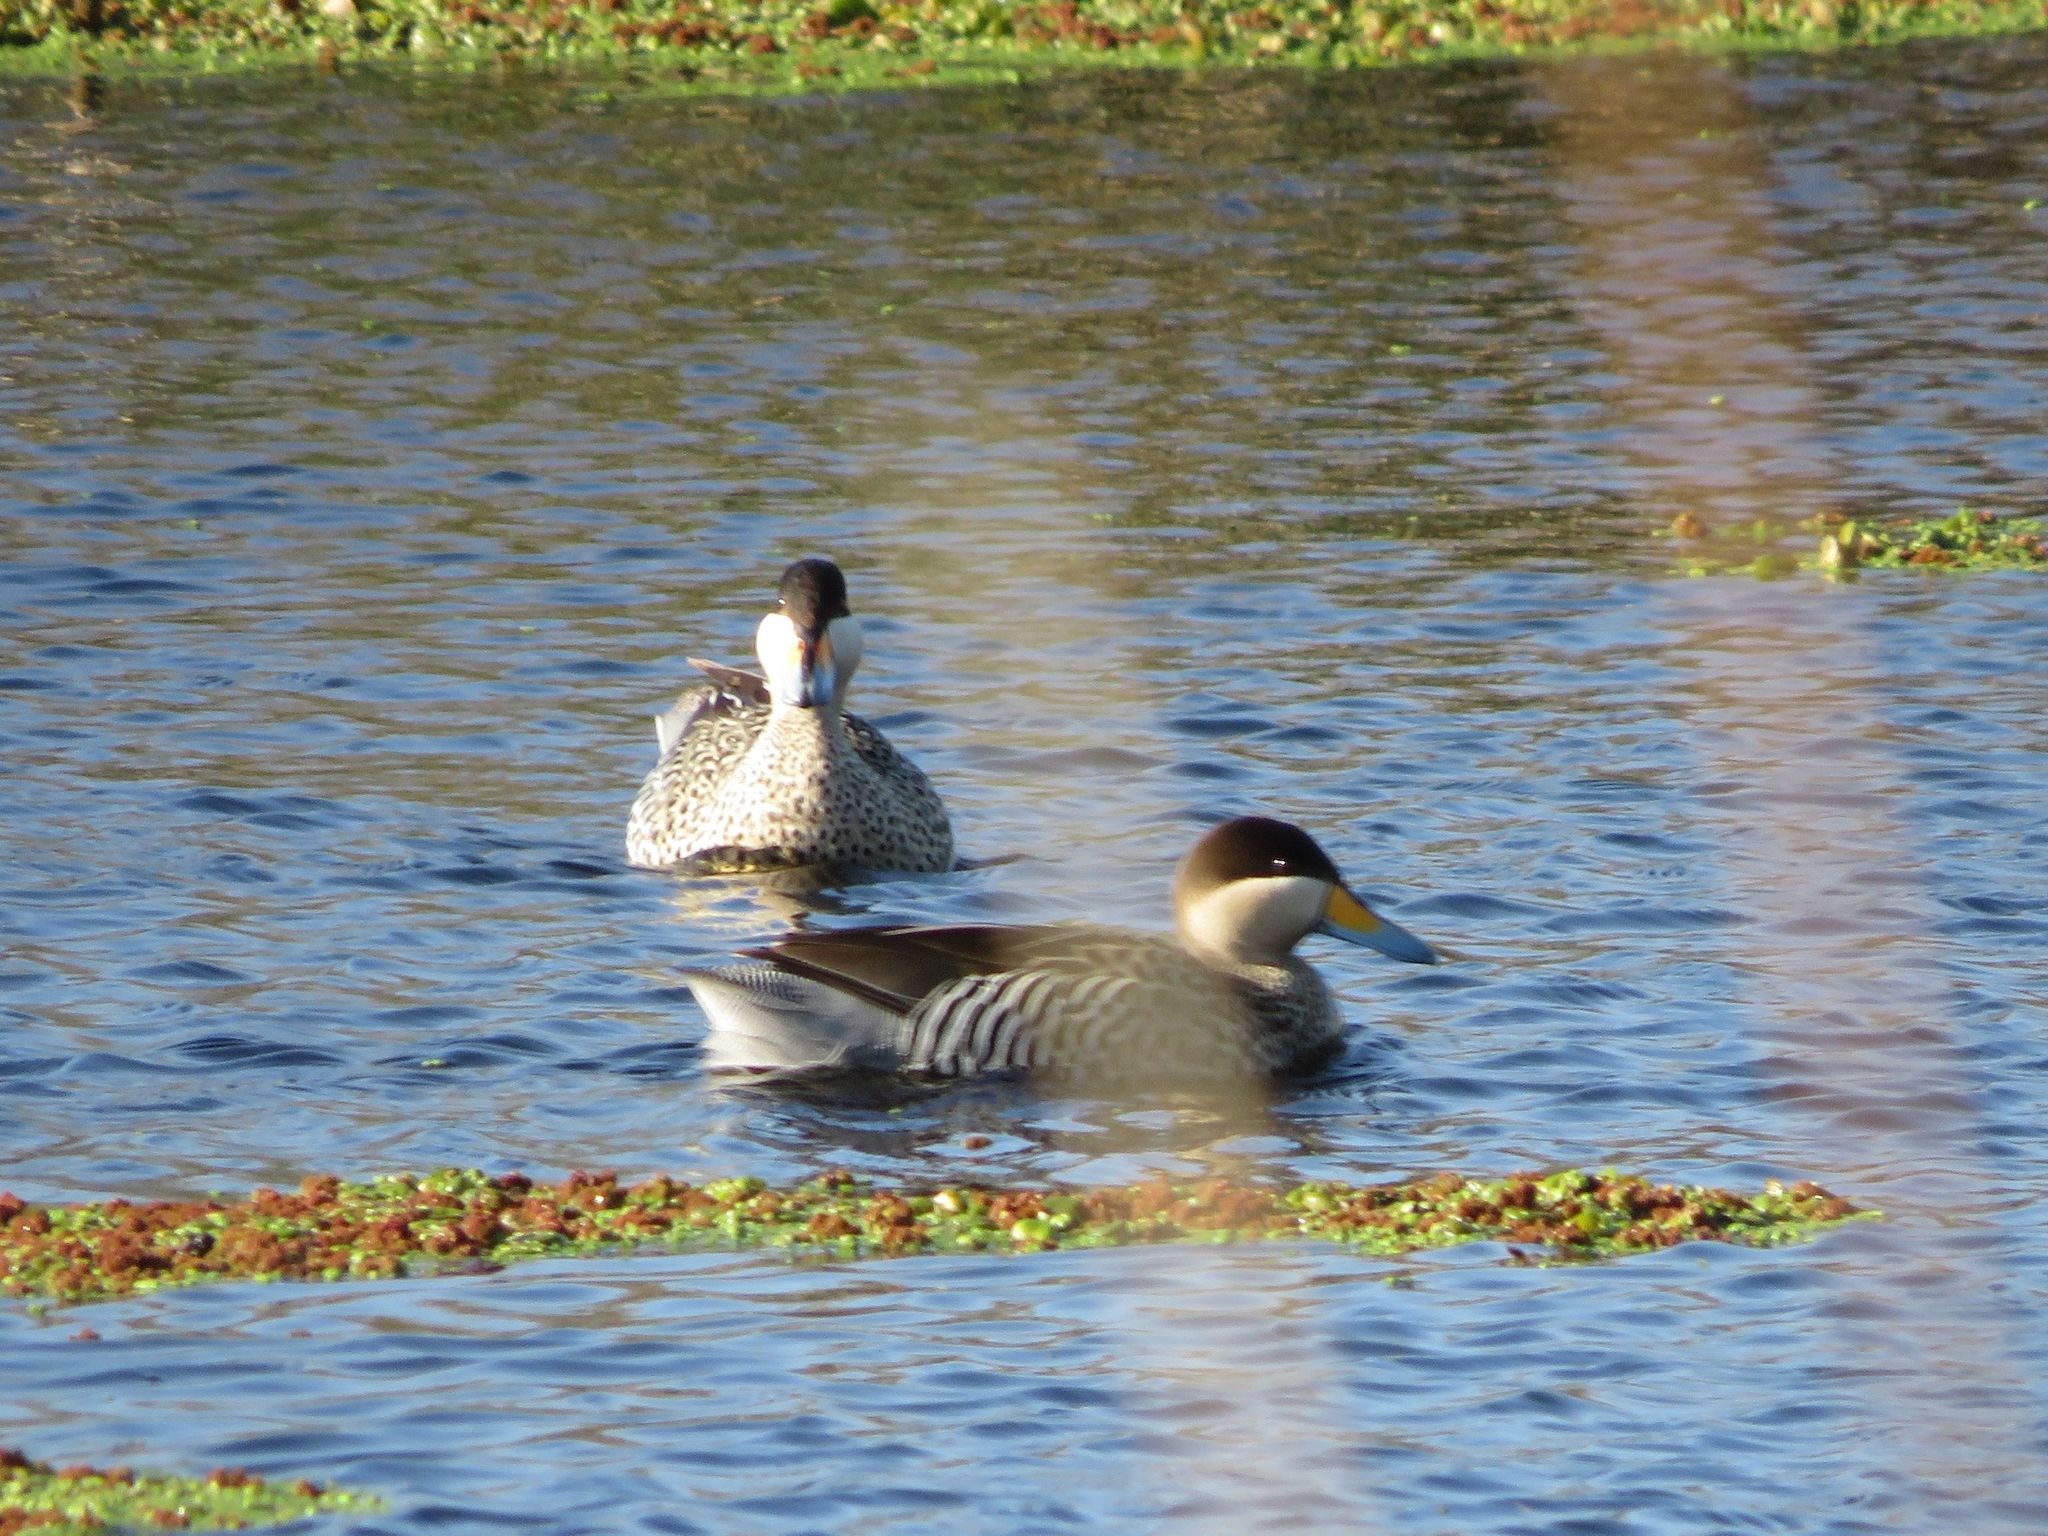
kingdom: Animalia
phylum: Chordata
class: Aves
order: Anseriformes
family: Anatidae
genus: Spatula
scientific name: Spatula versicolor
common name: Silver teal
